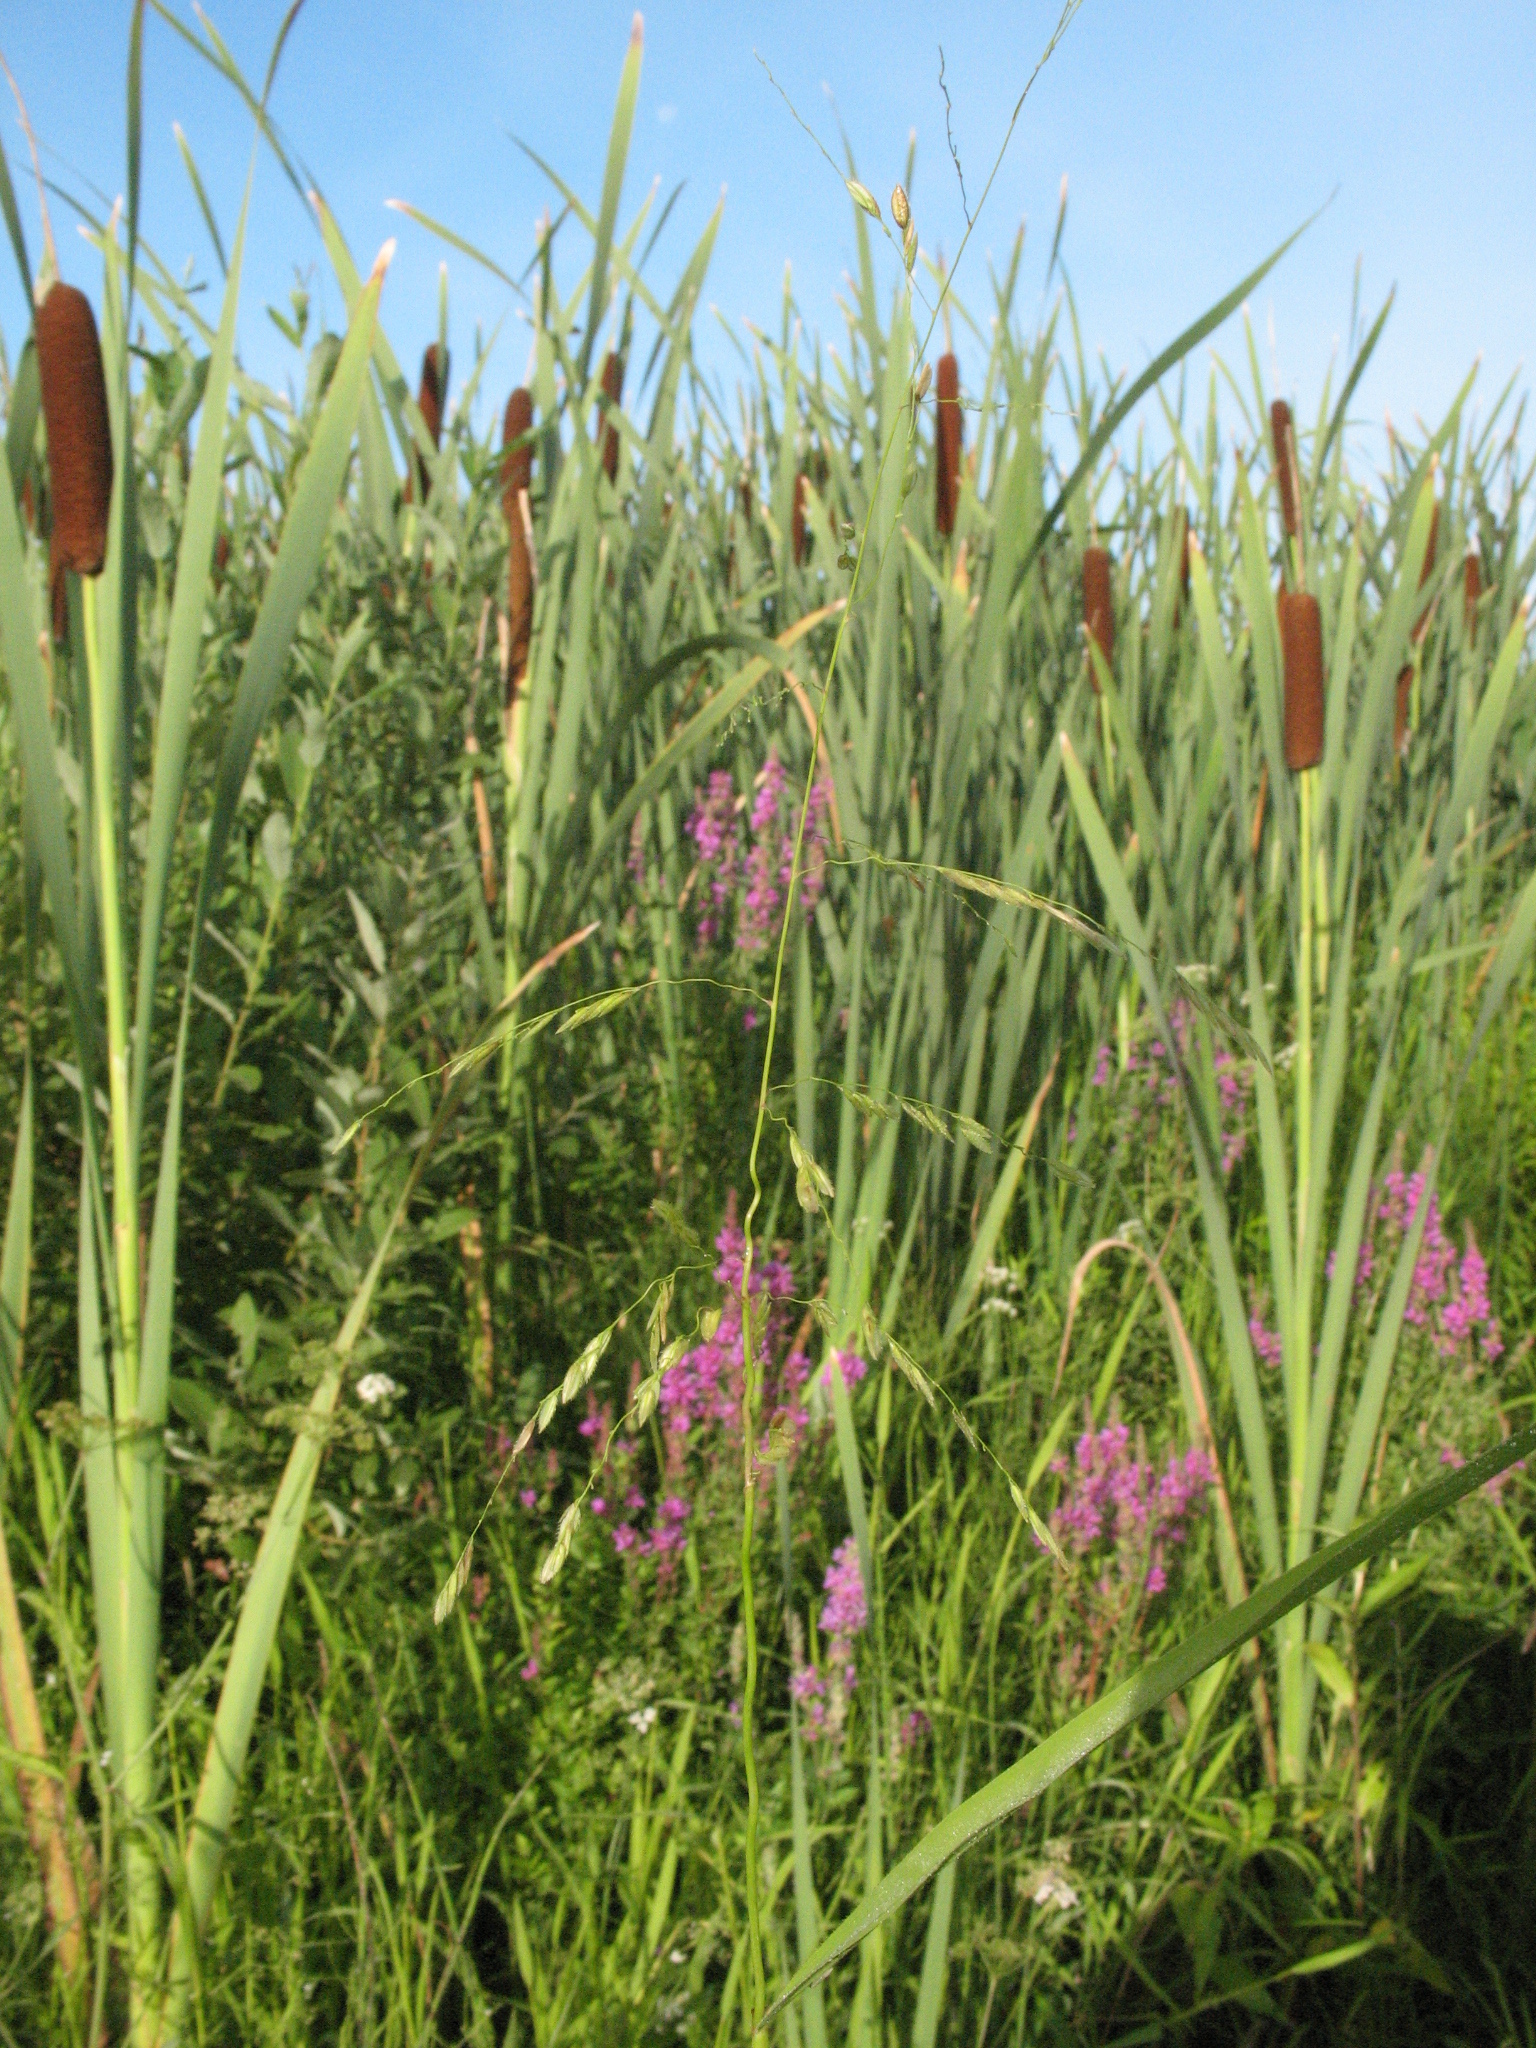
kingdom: Plantae
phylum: Tracheophyta
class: Magnoliopsida
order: Myrtales
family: Lythraceae
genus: Lythrum
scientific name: Lythrum salicaria
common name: Purple loosestrife
